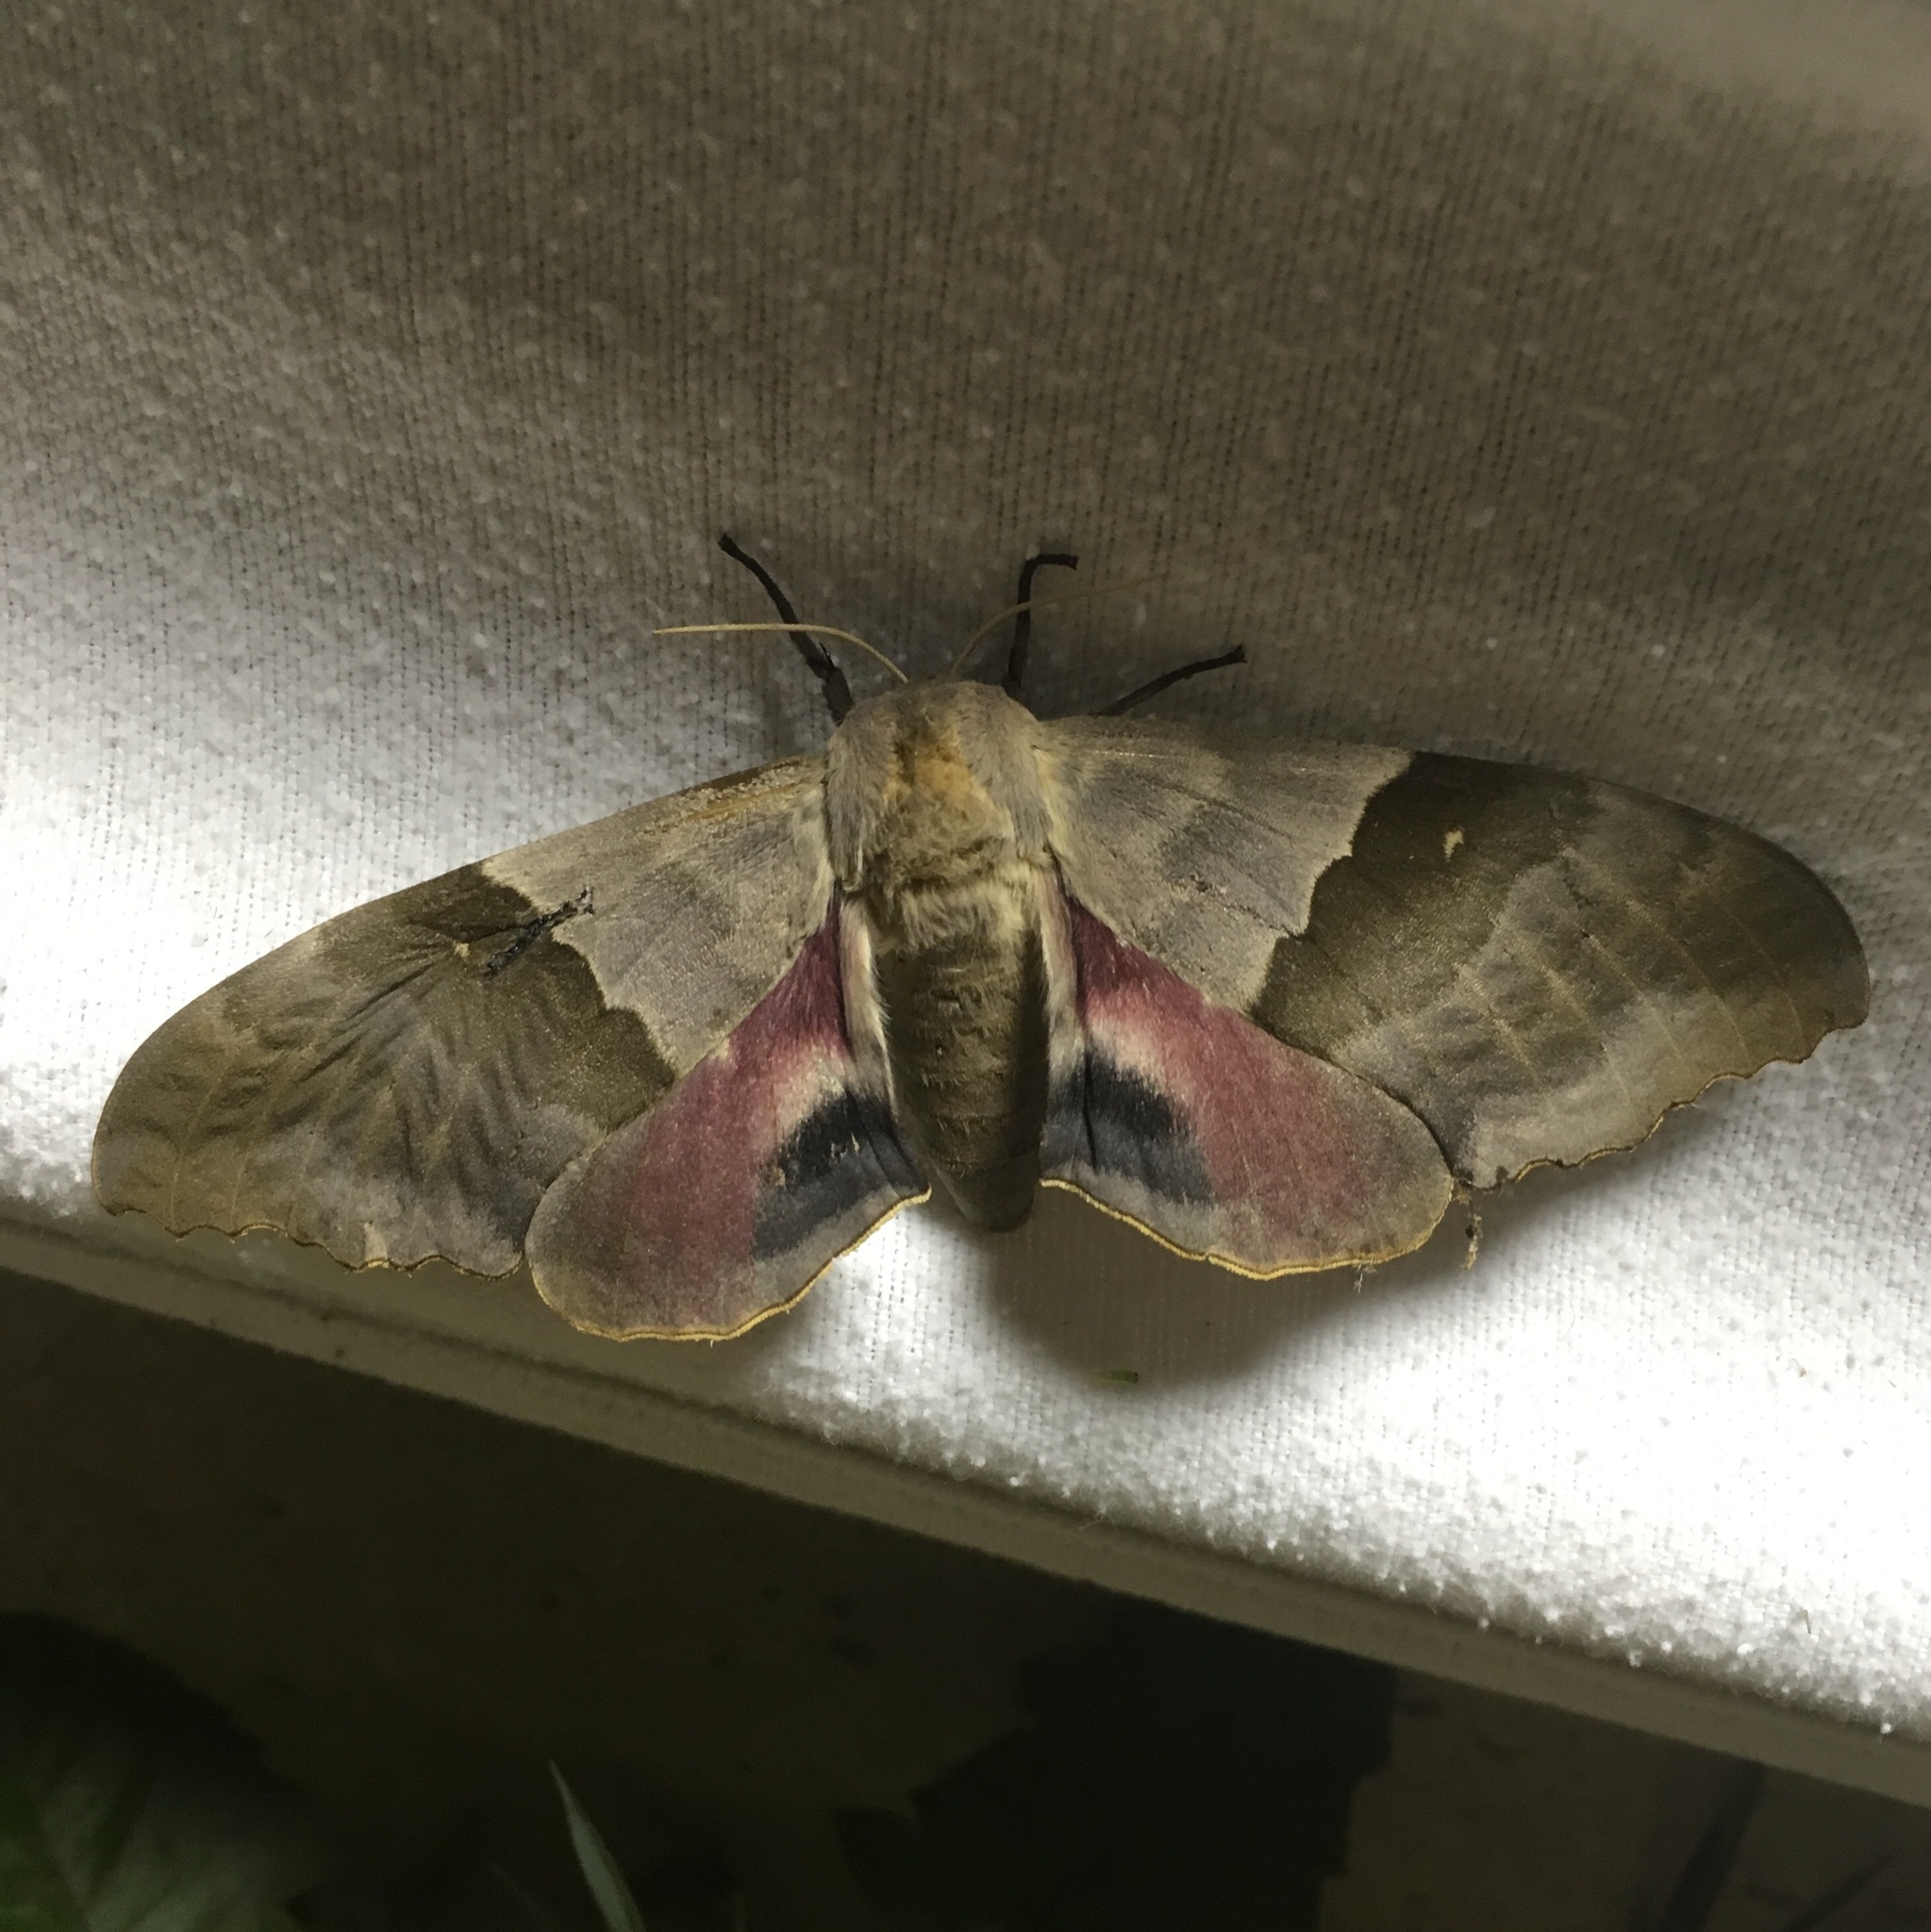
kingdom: Animalia
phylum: Arthropoda
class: Insecta
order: Lepidoptera
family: Sphingidae
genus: Pachysphinx
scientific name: Pachysphinx modesta
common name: Big poplar sphinx
